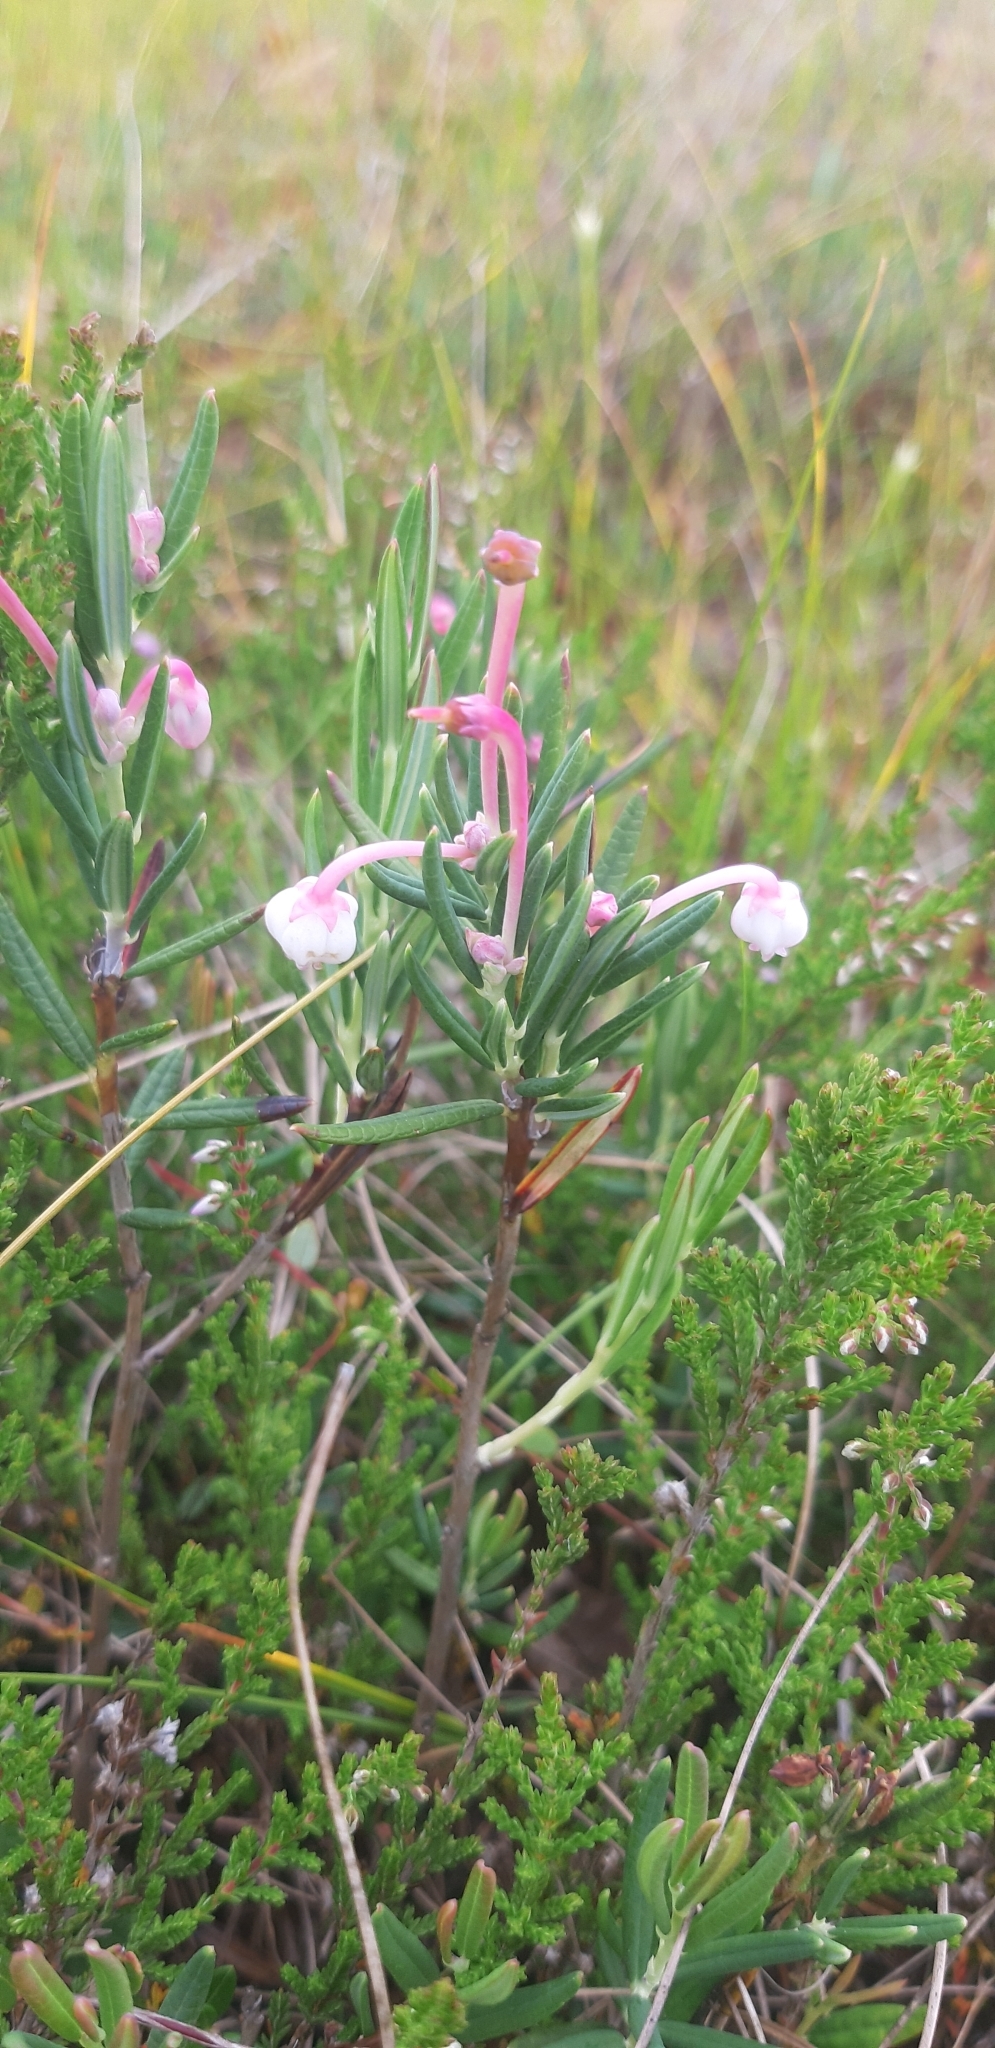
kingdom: Plantae
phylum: Tracheophyta
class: Magnoliopsida
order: Ericales
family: Ericaceae
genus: Andromeda
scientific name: Andromeda polifolia
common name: Bog-rosemary
